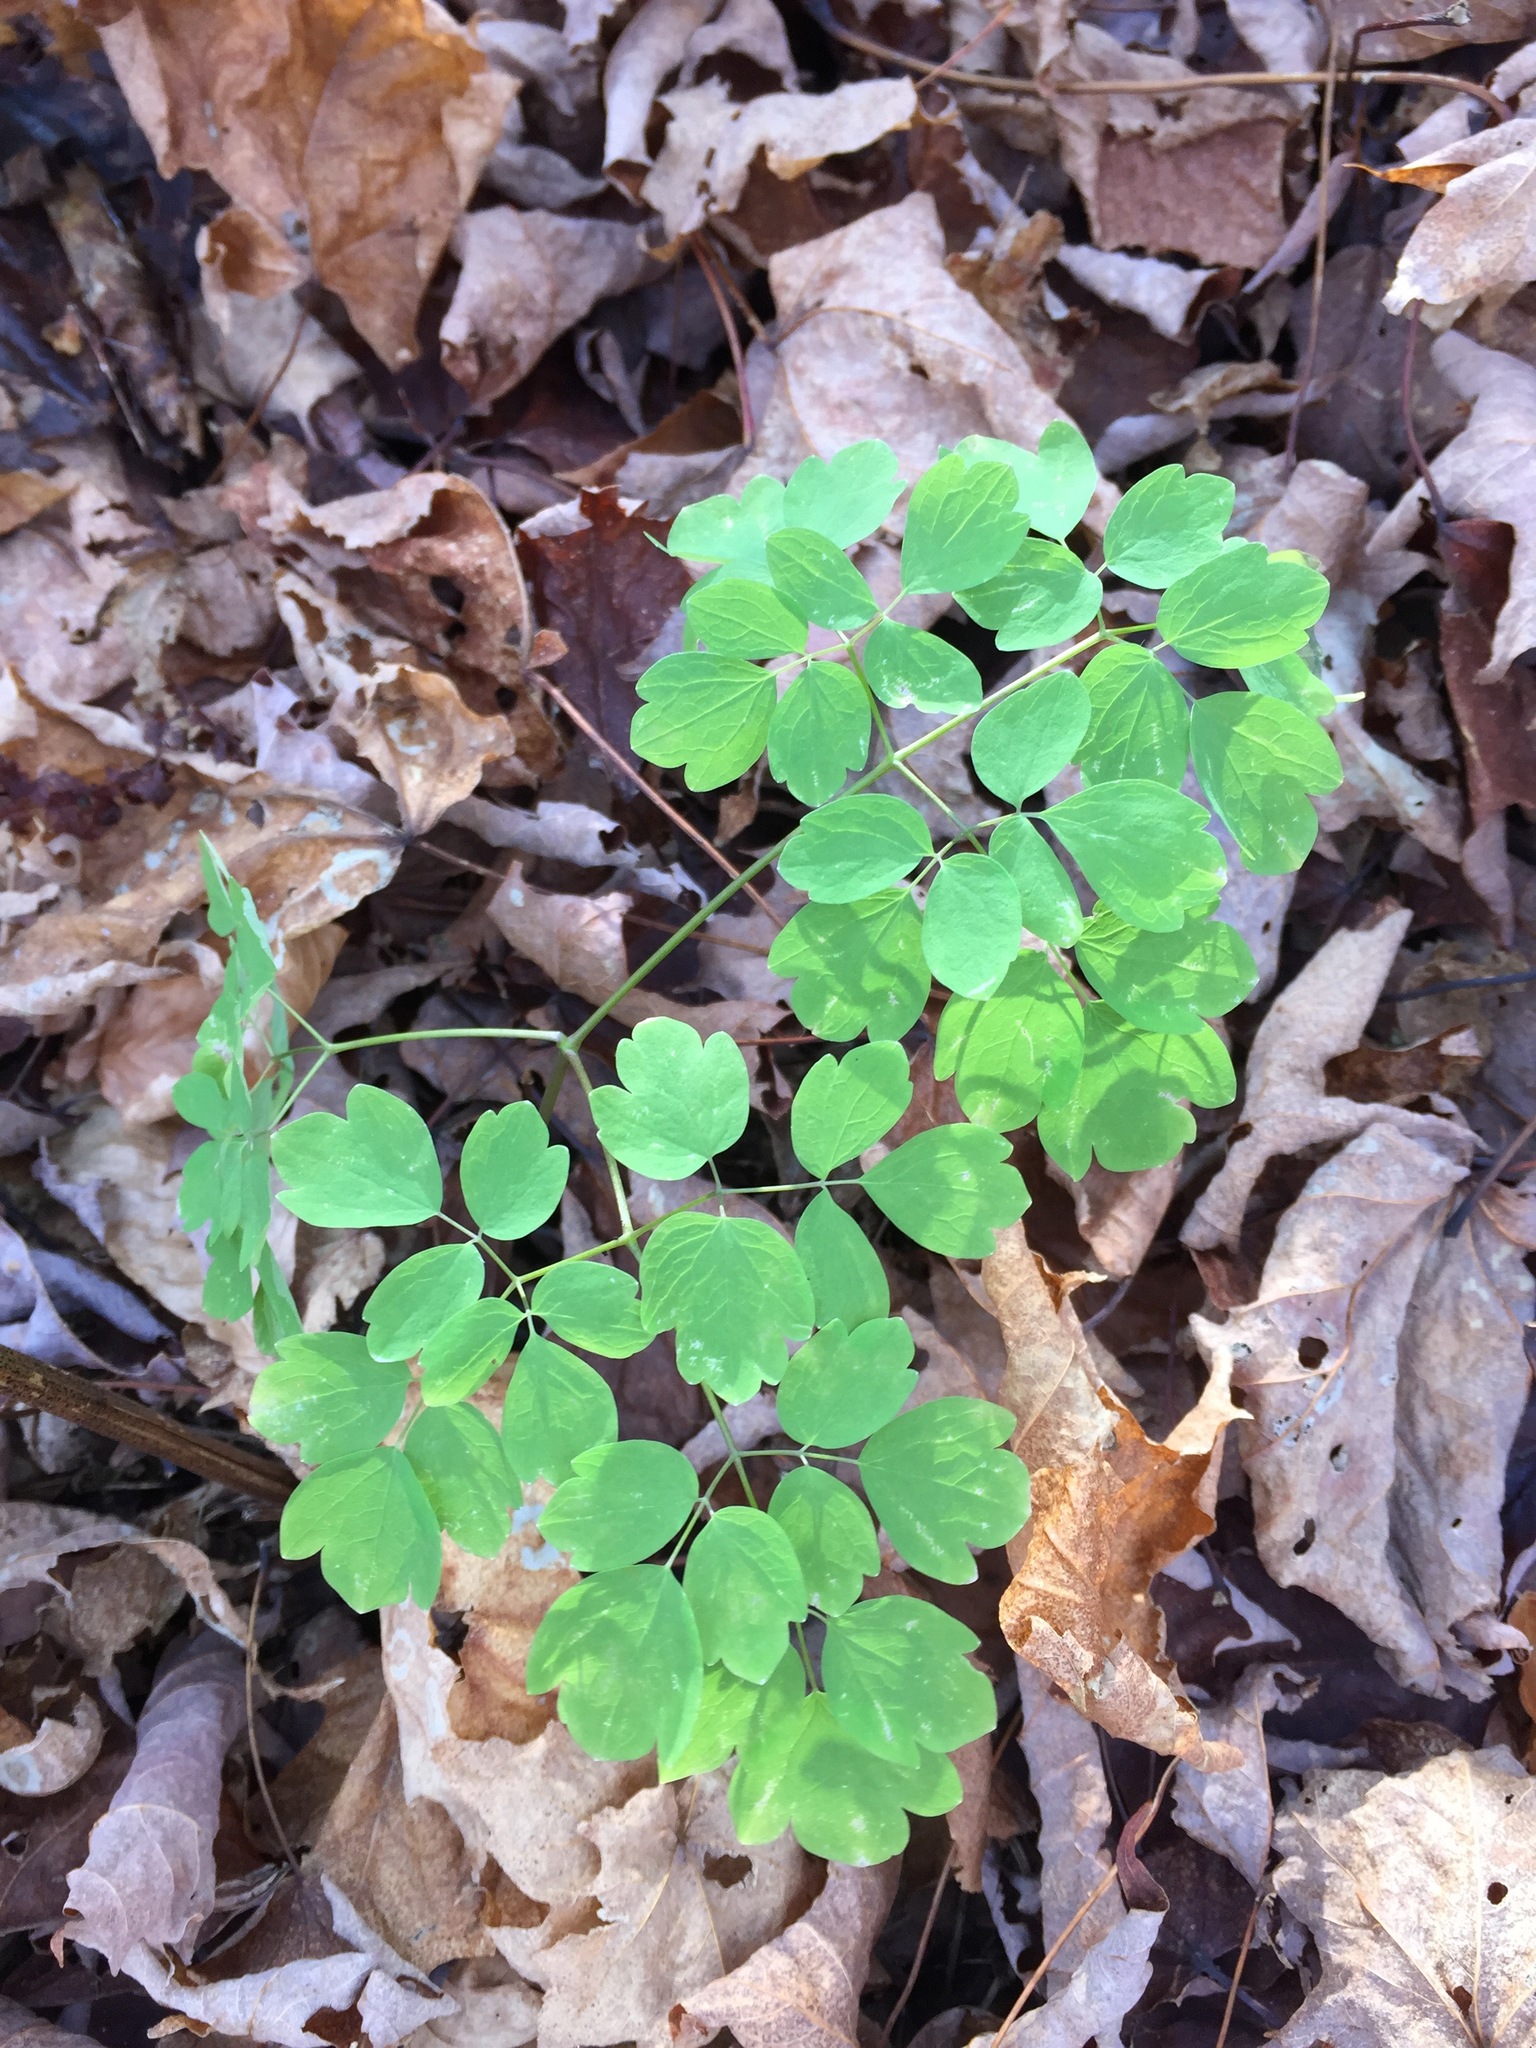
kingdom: Plantae
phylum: Tracheophyta
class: Magnoliopsida
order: Ranunculales
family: Ranunculaceae
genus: Thalictrum
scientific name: Thalictrum pubescens
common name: King-of-the-meadow
